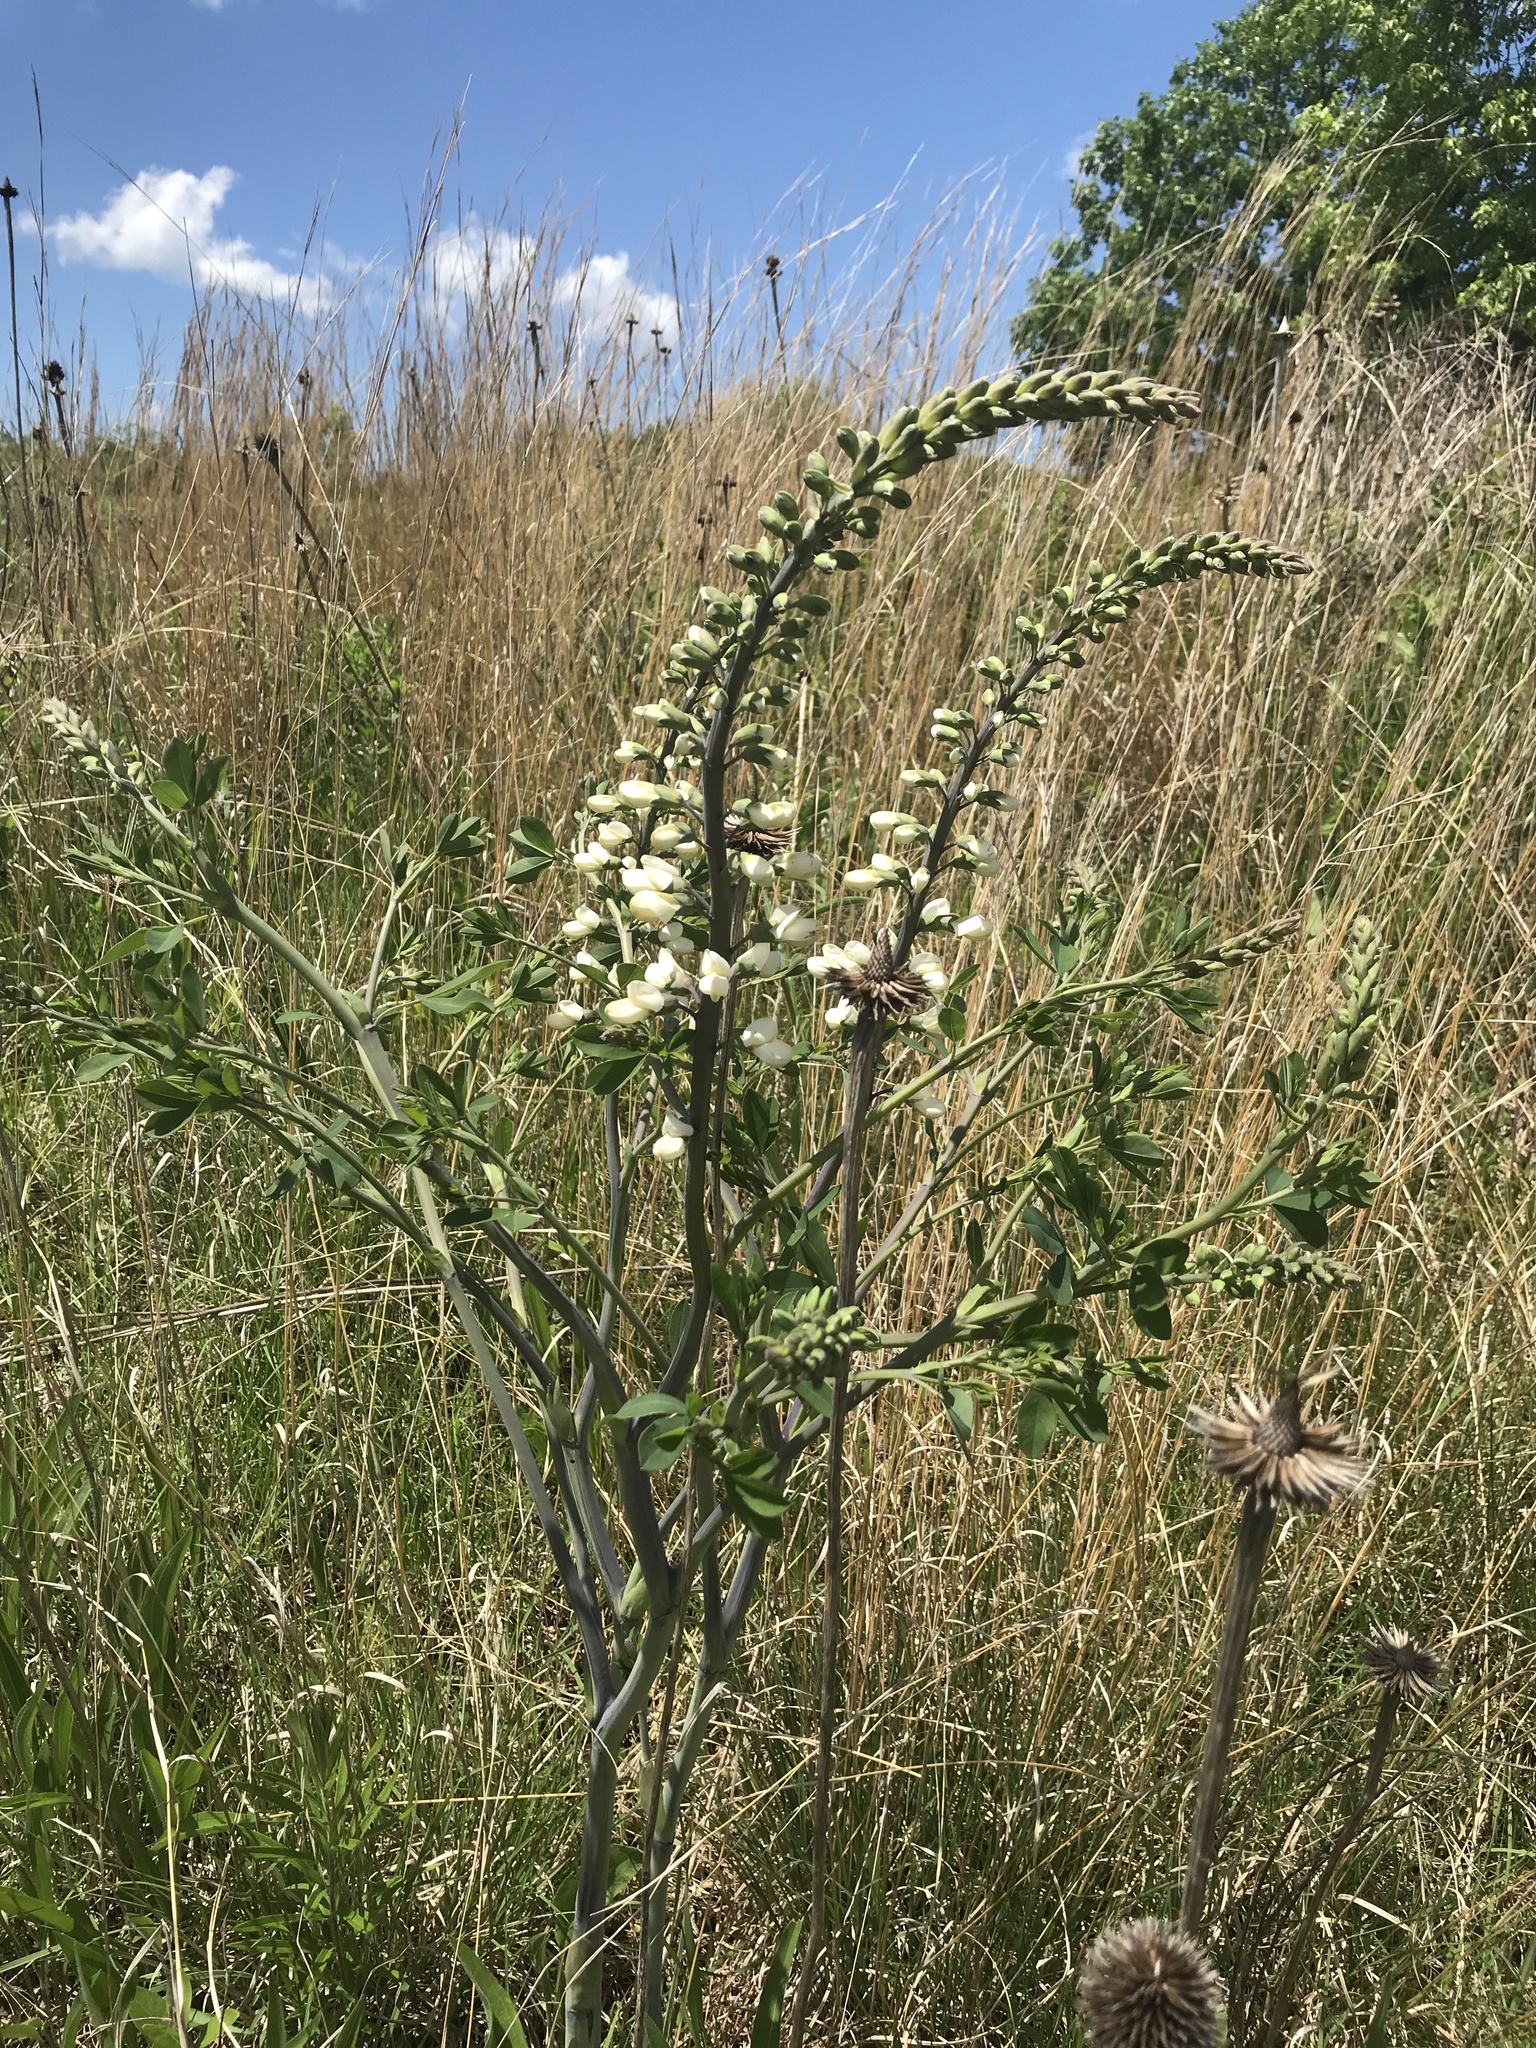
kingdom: Plantae
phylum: Tracheophyta
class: Magnoliopsida
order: Fabales
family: Fabaceae
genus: Baptisia
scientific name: Baptisia alba
